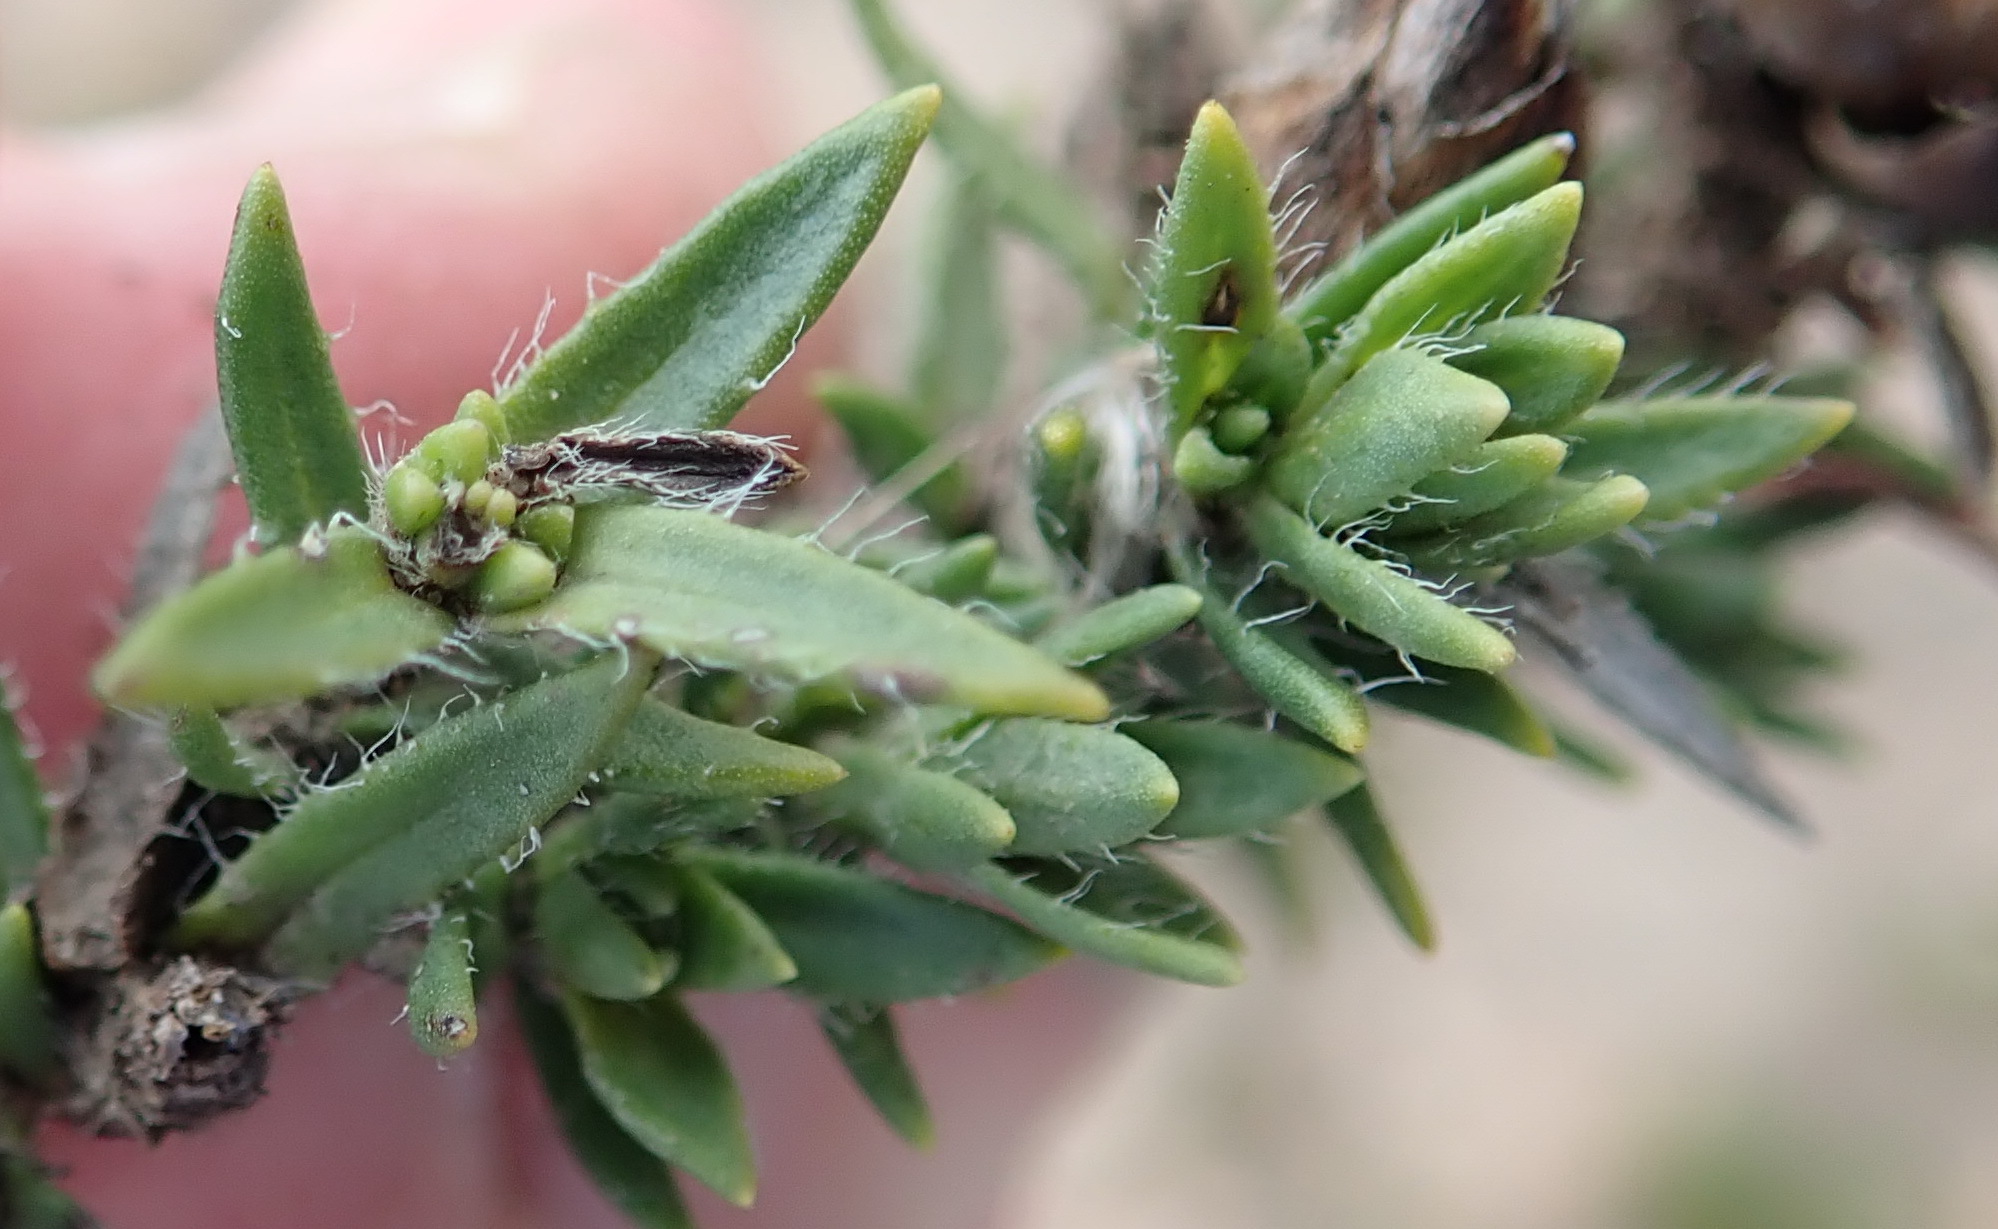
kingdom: Plantae
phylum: Tracheophyta
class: Magnoliopsida
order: Asterales
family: Asteraceae
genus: Pteronia
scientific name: Pteronia elongata
